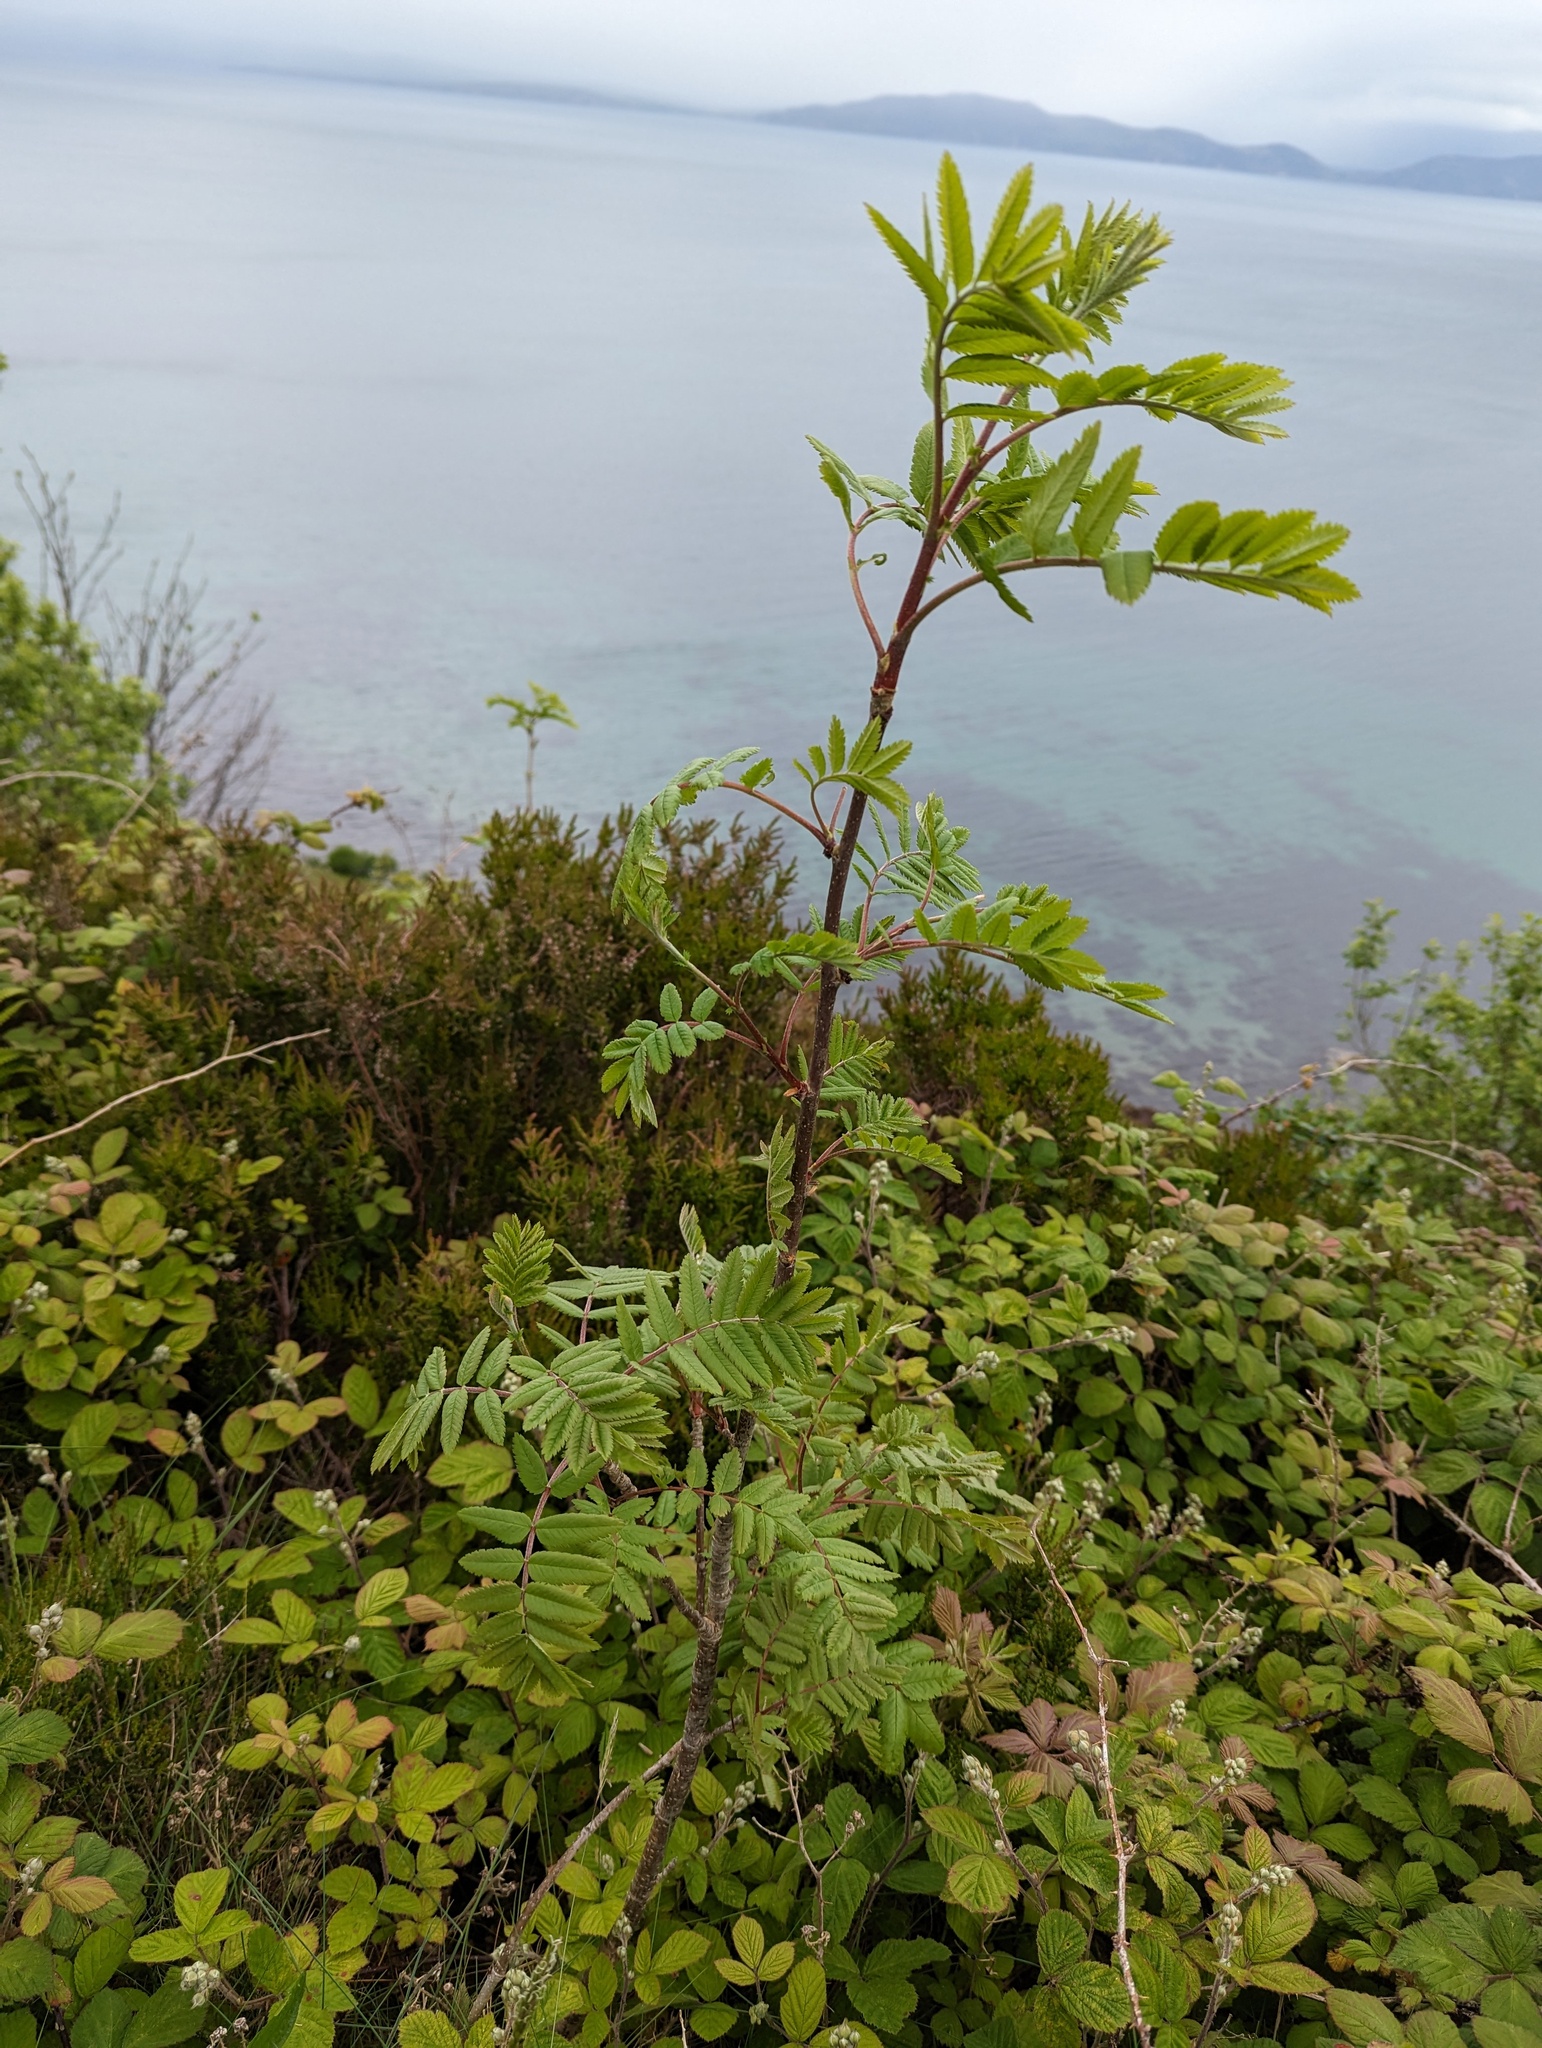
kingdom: Plantae
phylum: Tracheophyta
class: Magnoliopsida
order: Rosales
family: Rosaceae
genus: Sorbus
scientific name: Sorbus aucuparia
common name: Rowan
